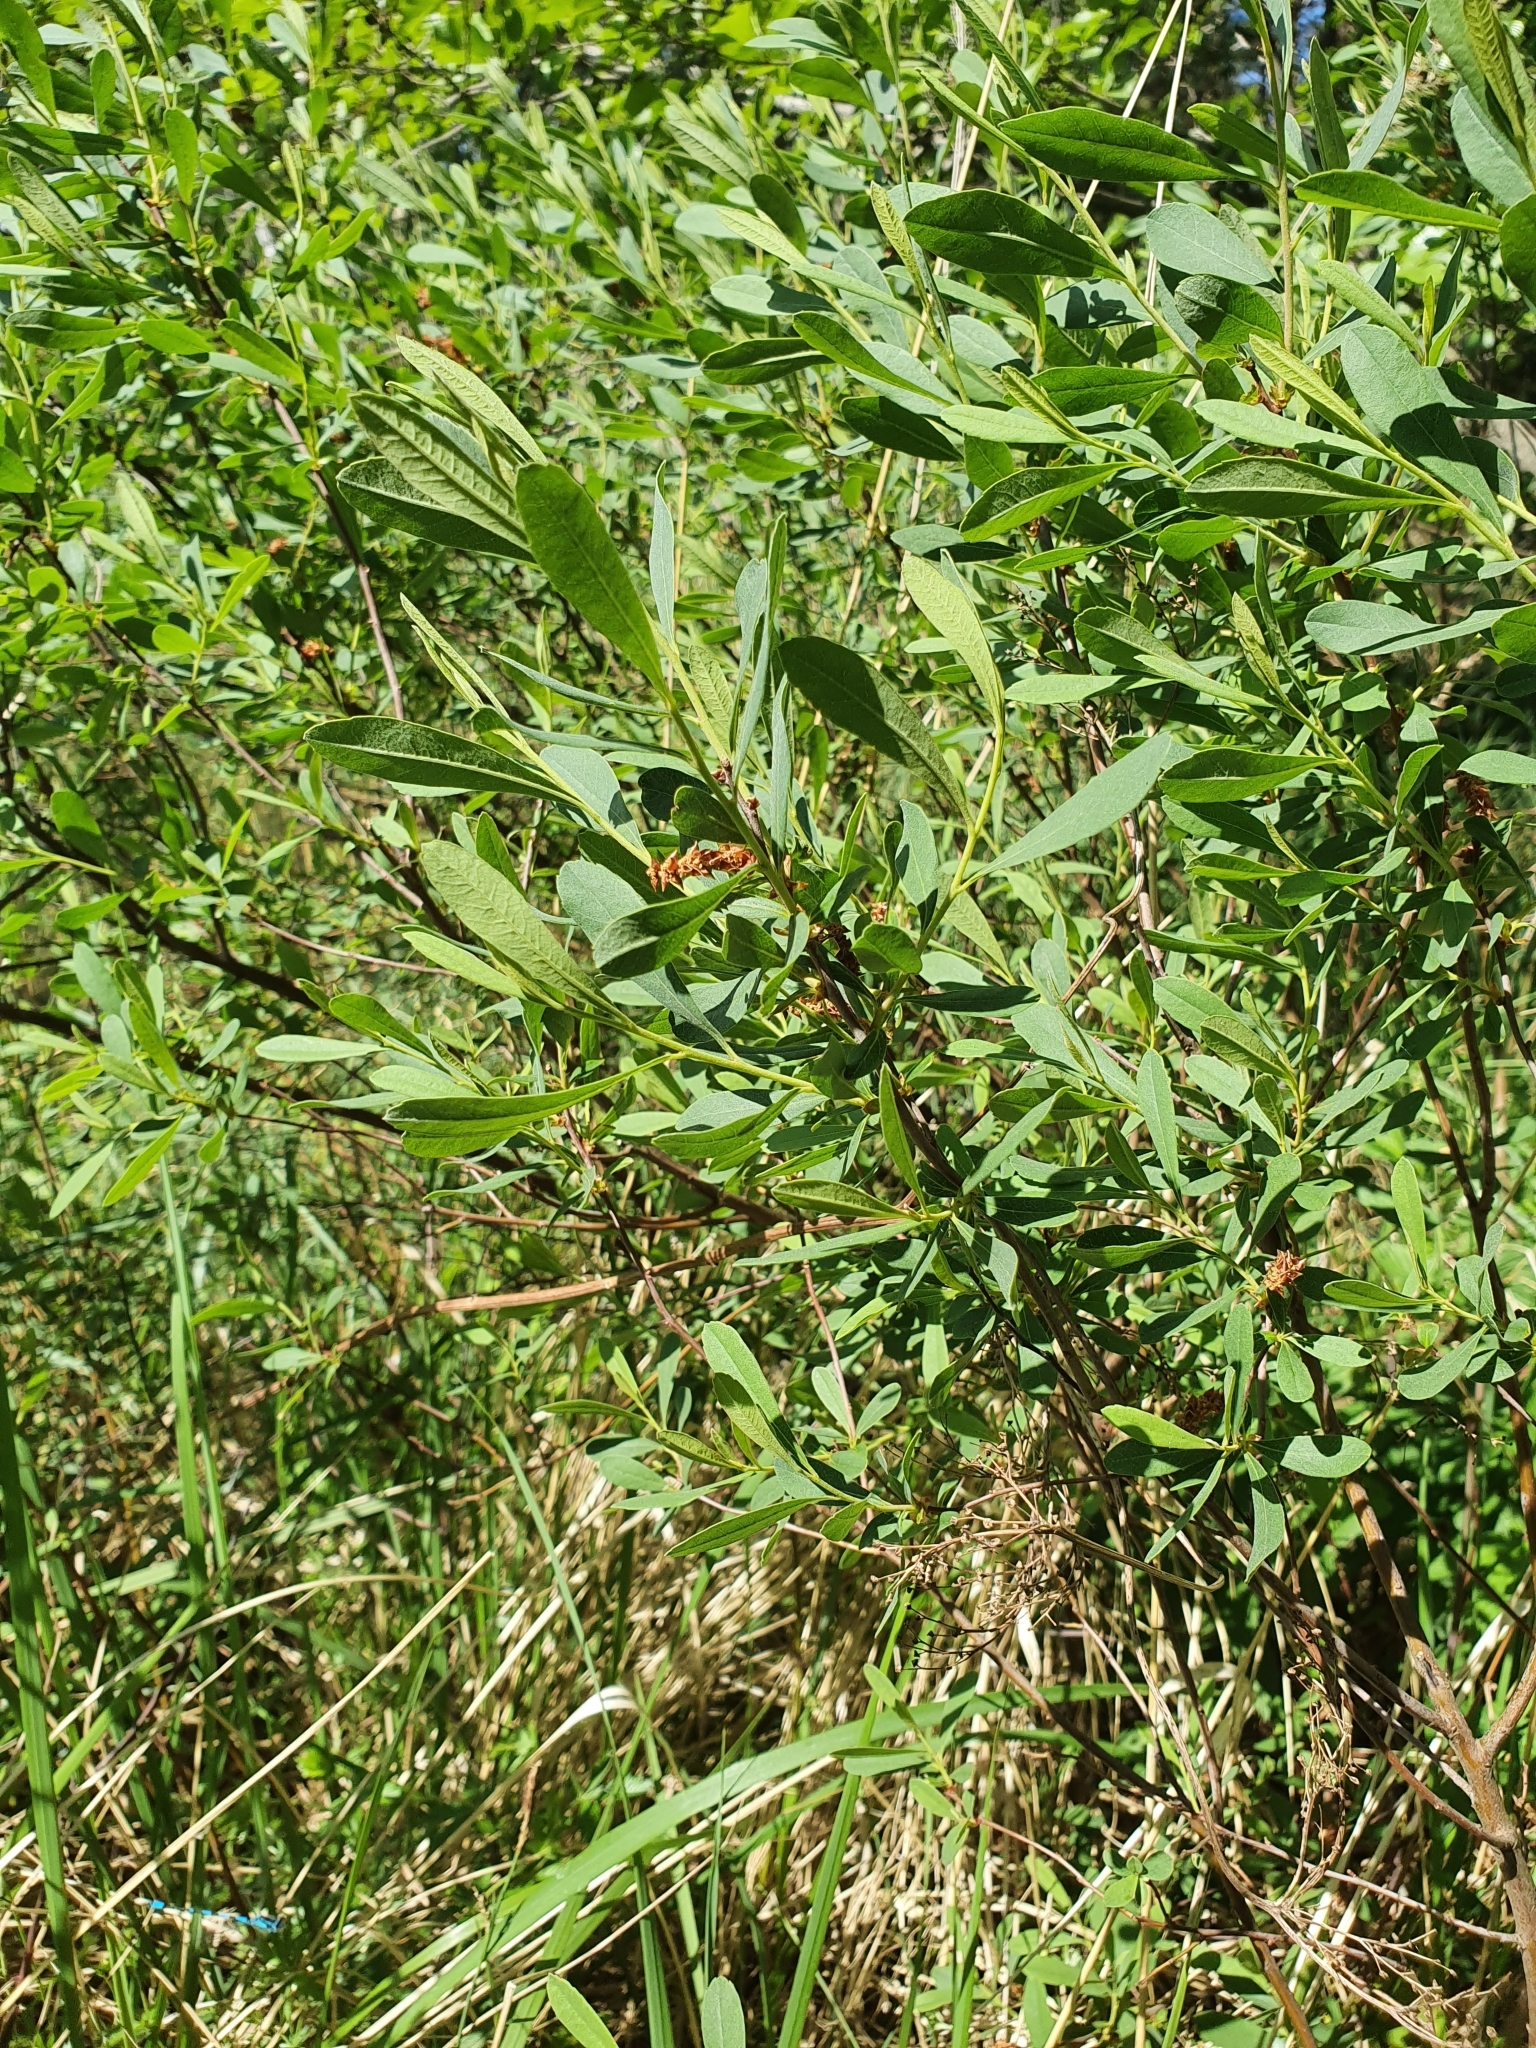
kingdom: Plantae
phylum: Tracheophyta
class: Magnoliopsida
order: Fagales
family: Myricaceae
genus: Myrica
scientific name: Myrica gale
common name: Sweet gale
